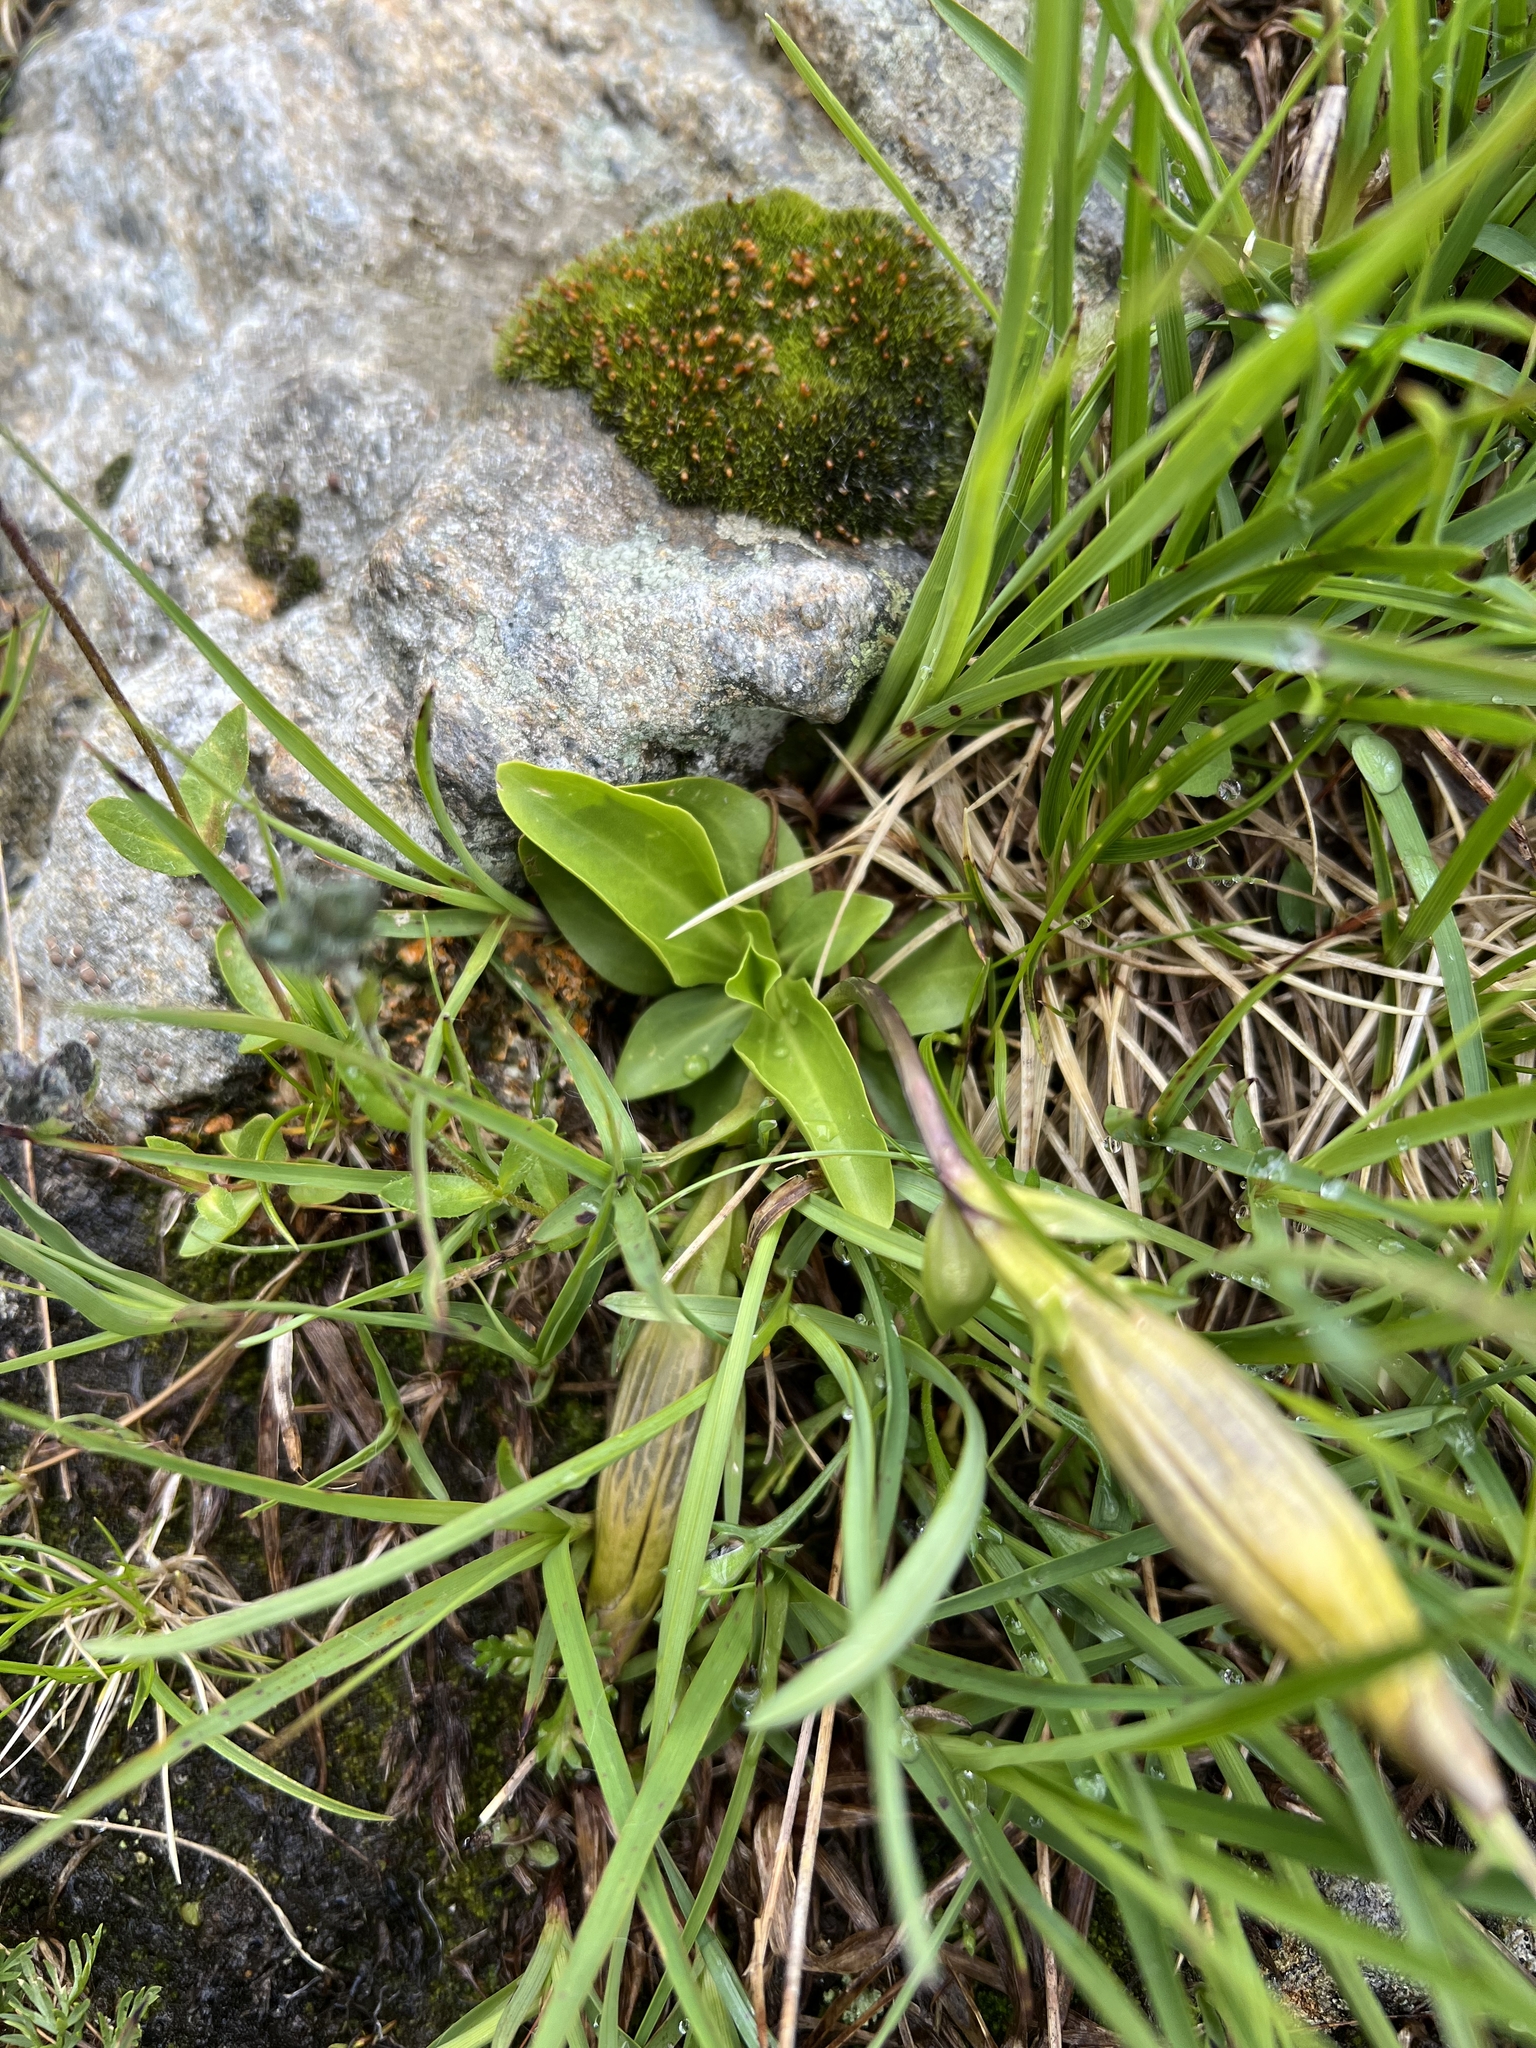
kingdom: Plantae
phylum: Tracheophyta
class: Magnoliopsida
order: Gentianales
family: Gentianaceae
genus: Gentiana
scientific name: Gentiana acaulis
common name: Trumpet gentian
